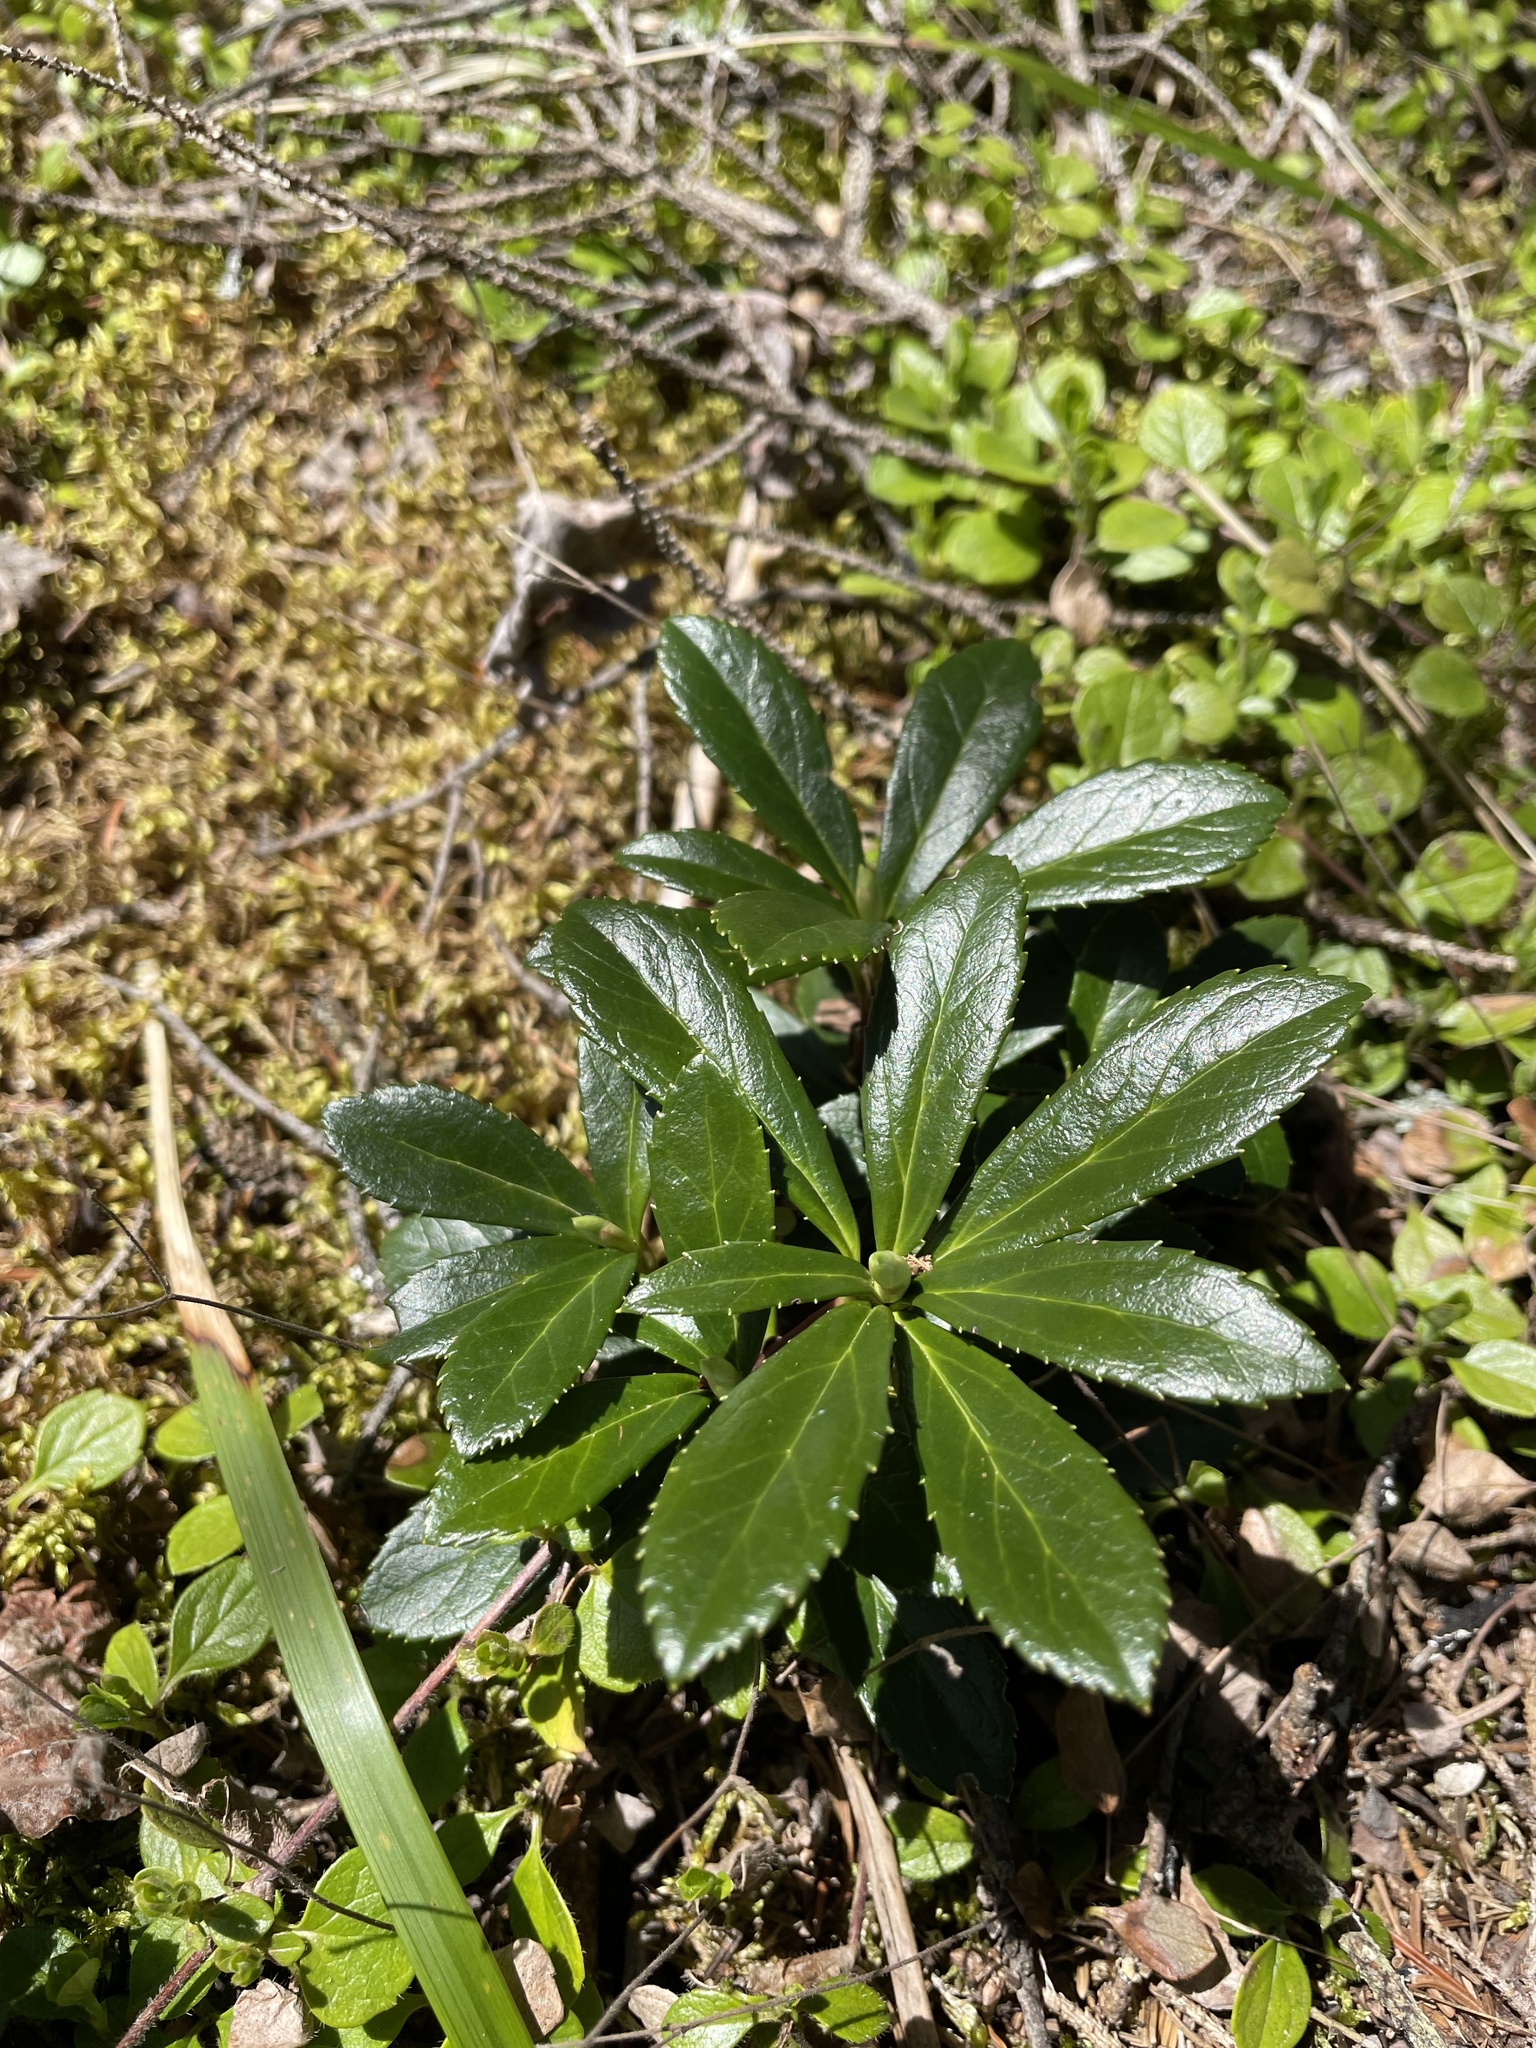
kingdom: Plantae
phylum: Tracheophyta
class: Magnoliopsida
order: Ericales
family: Ericaceae
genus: Chimaphila
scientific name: Chimaphila umbellata
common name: Pipsissewa
